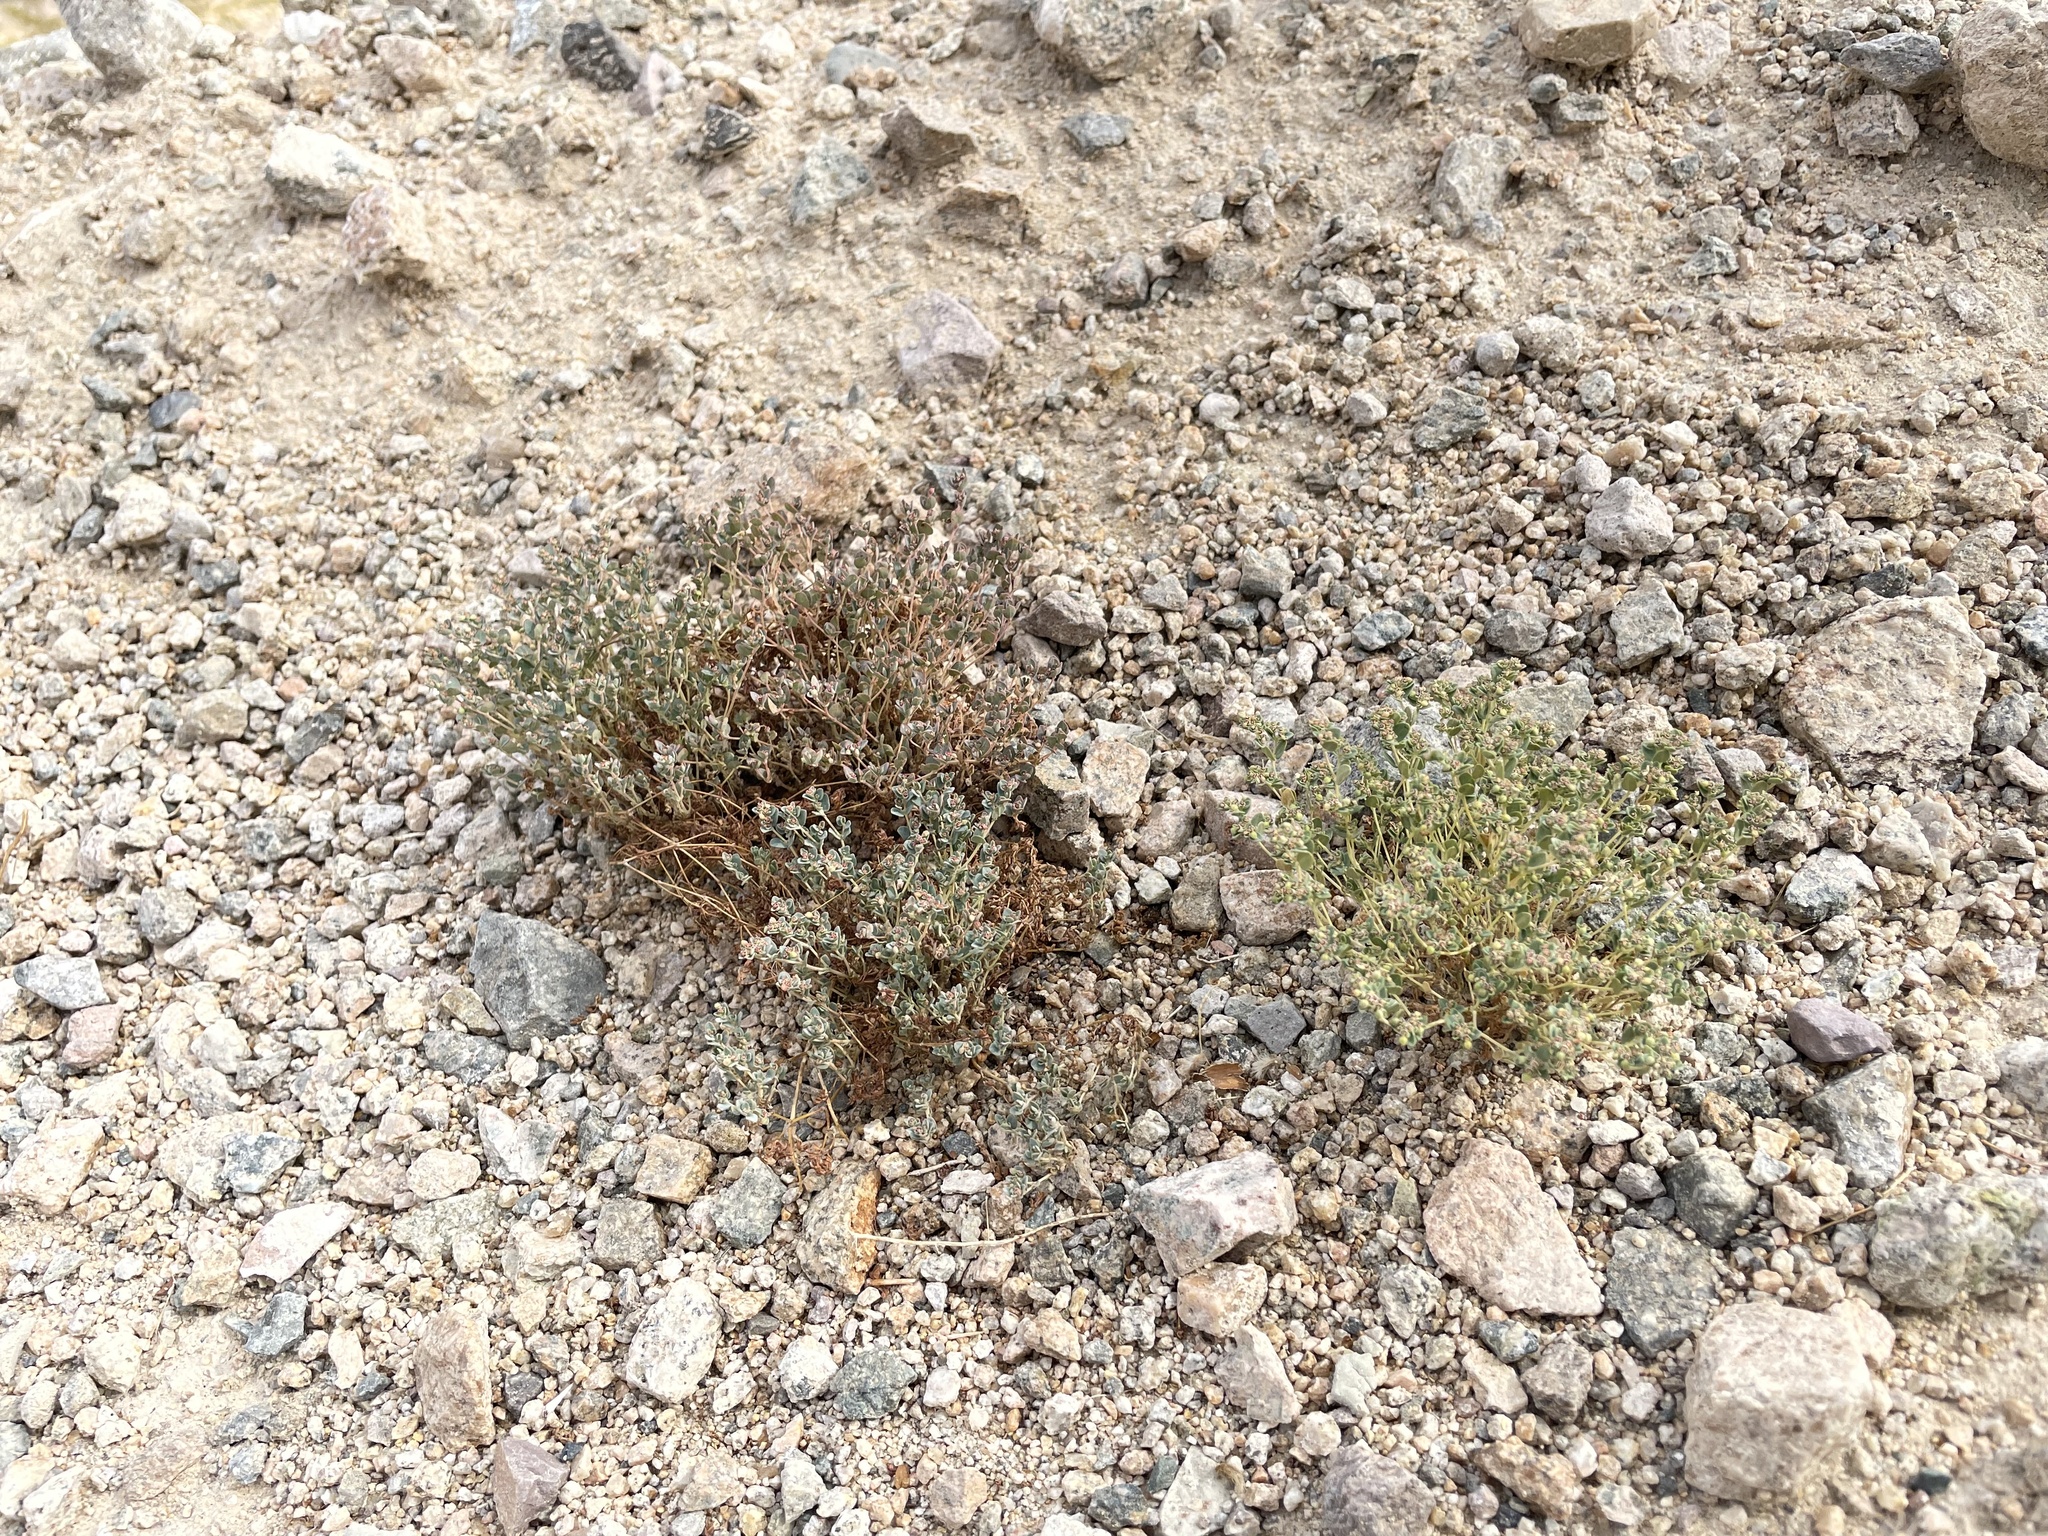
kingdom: Plantae
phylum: Tracheophyta
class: Magnoliopsida
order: Malpighiales
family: Euphorbiaceae
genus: Euphorbia
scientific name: Euphorbia polycarpa
